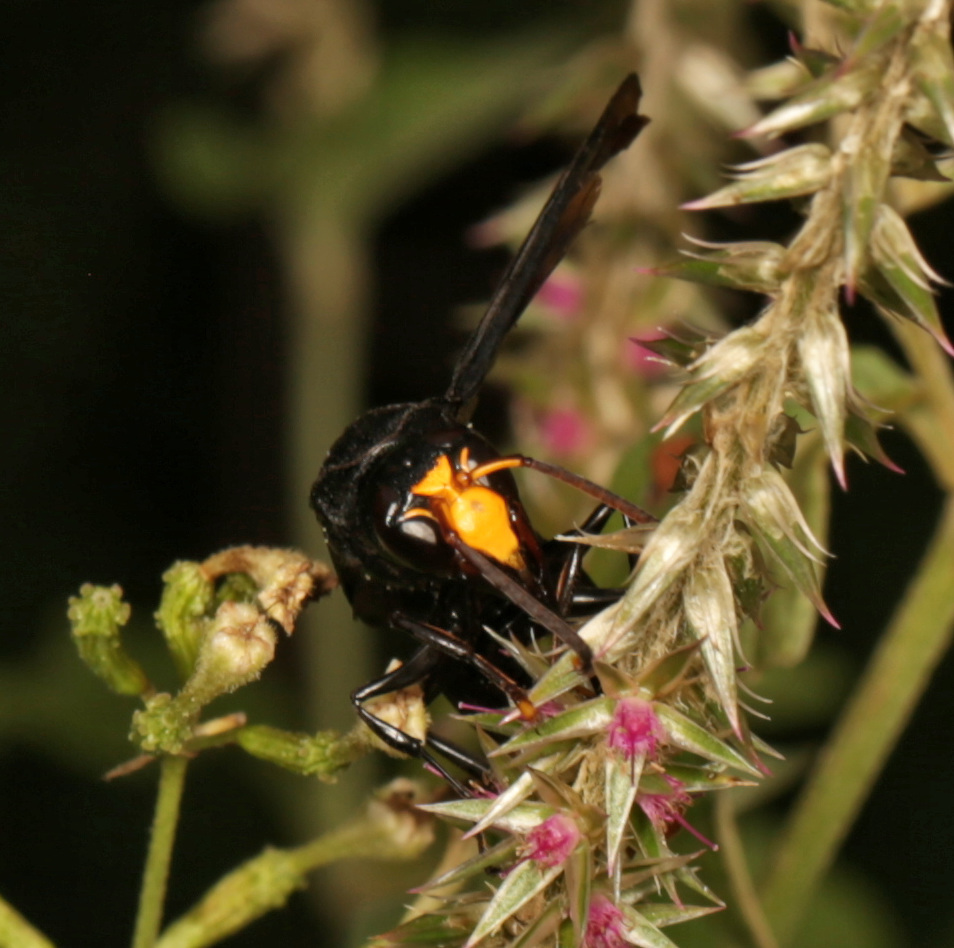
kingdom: Animalia
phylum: Arthropoda
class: Insecta
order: Hymenoptera
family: Vespidae
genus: Synagris
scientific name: Synagris analis
